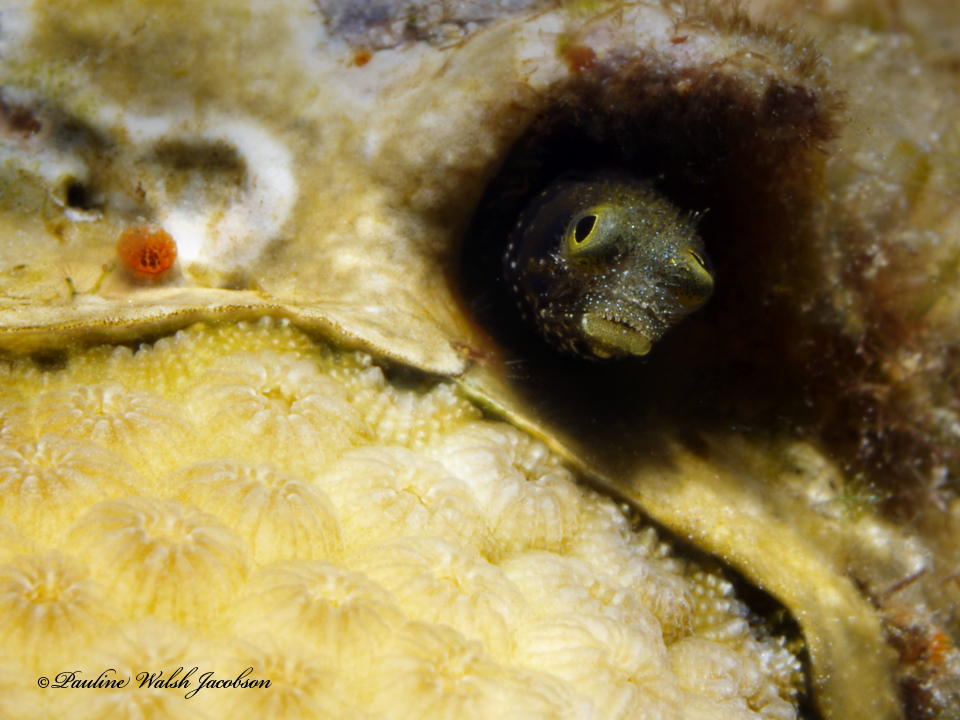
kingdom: Animalia
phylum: Chordata
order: Perciformes
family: Chaenopsidae
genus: Acanthemblemaria
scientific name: Acanthemblemaria spinosa
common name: Spinyhead blenny
